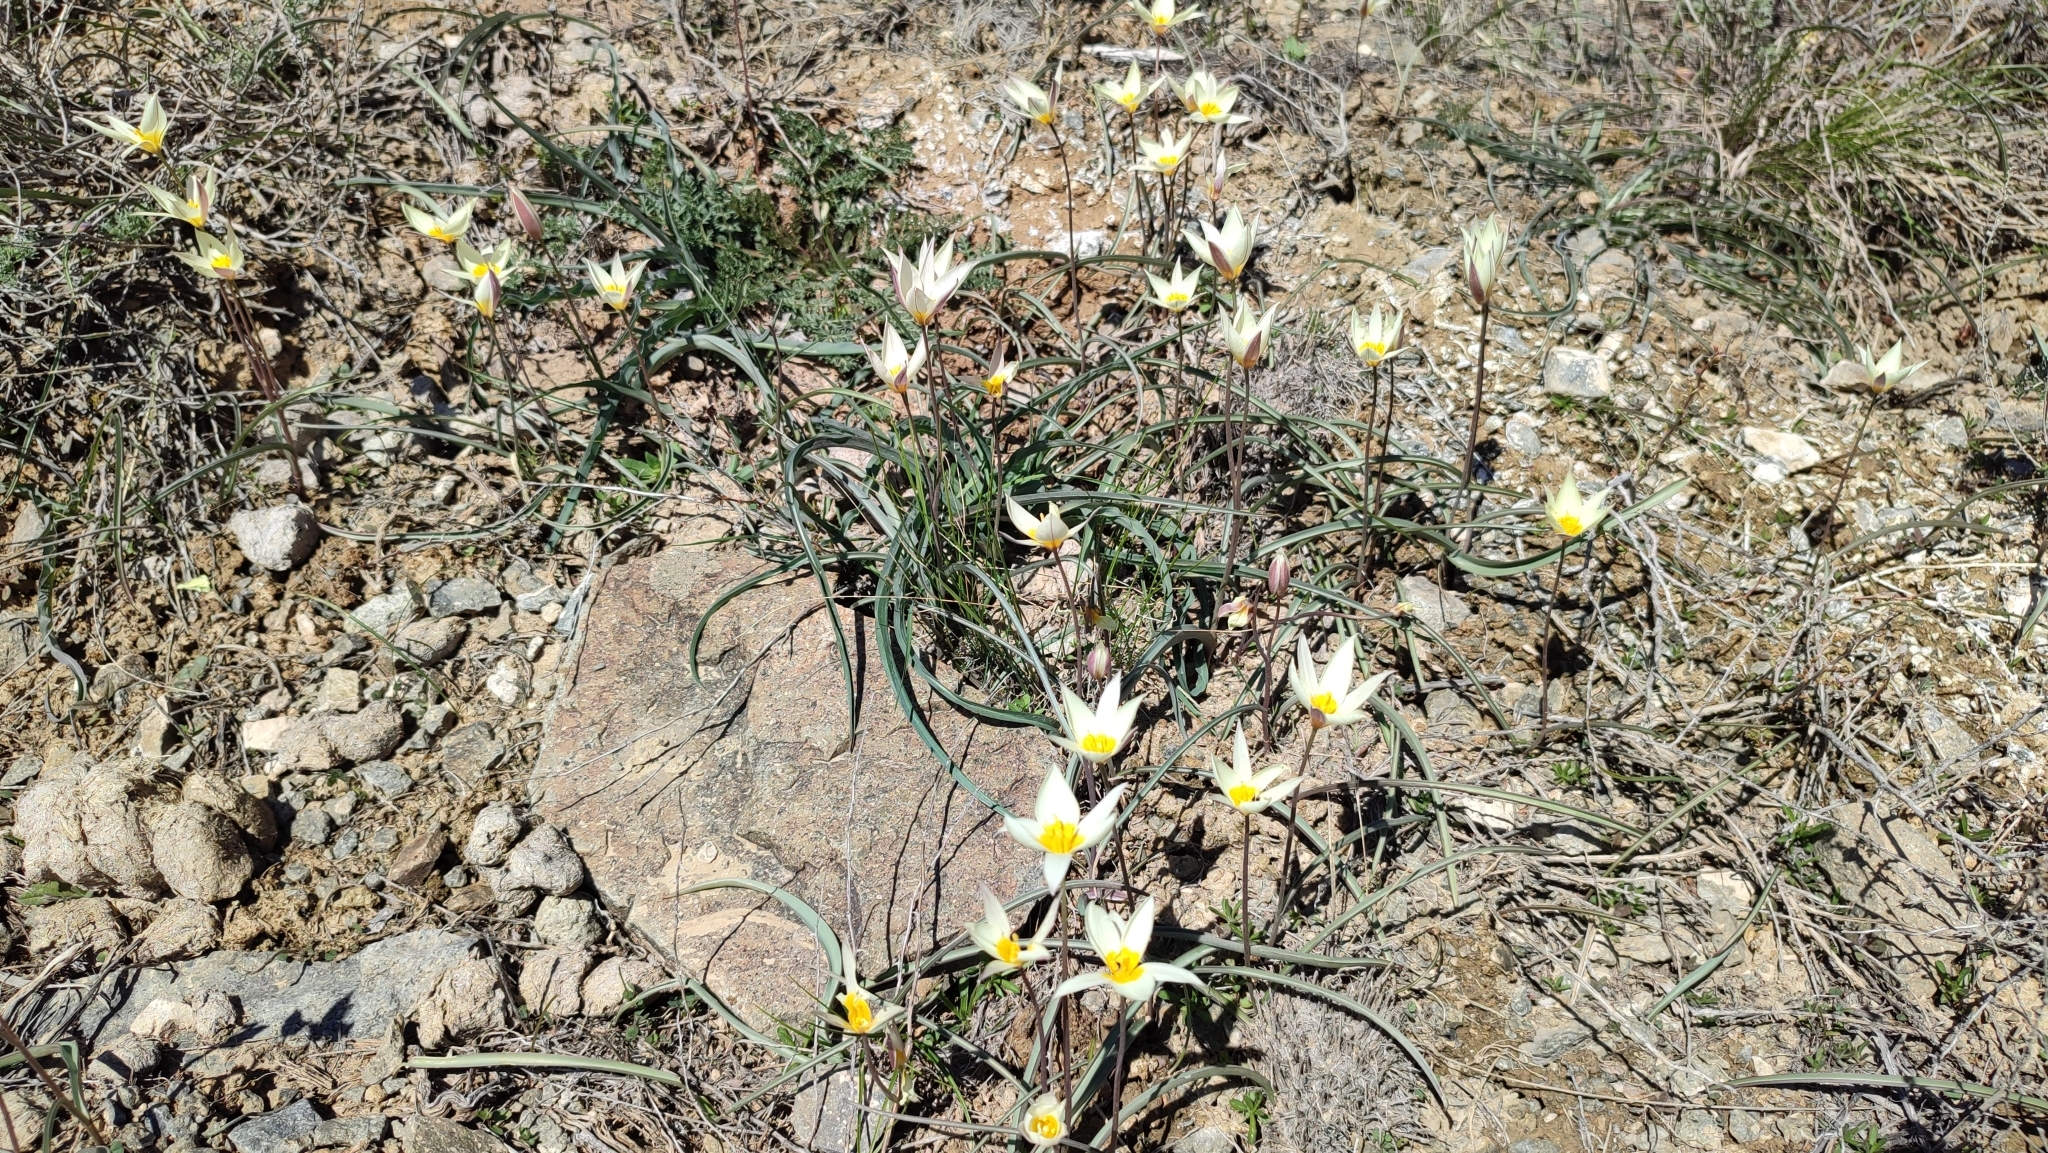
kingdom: Plantae
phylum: Tracheophyta
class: Liliopsida
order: Liliales
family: Liliaceae
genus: Tulipa
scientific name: Tulipa biflora
